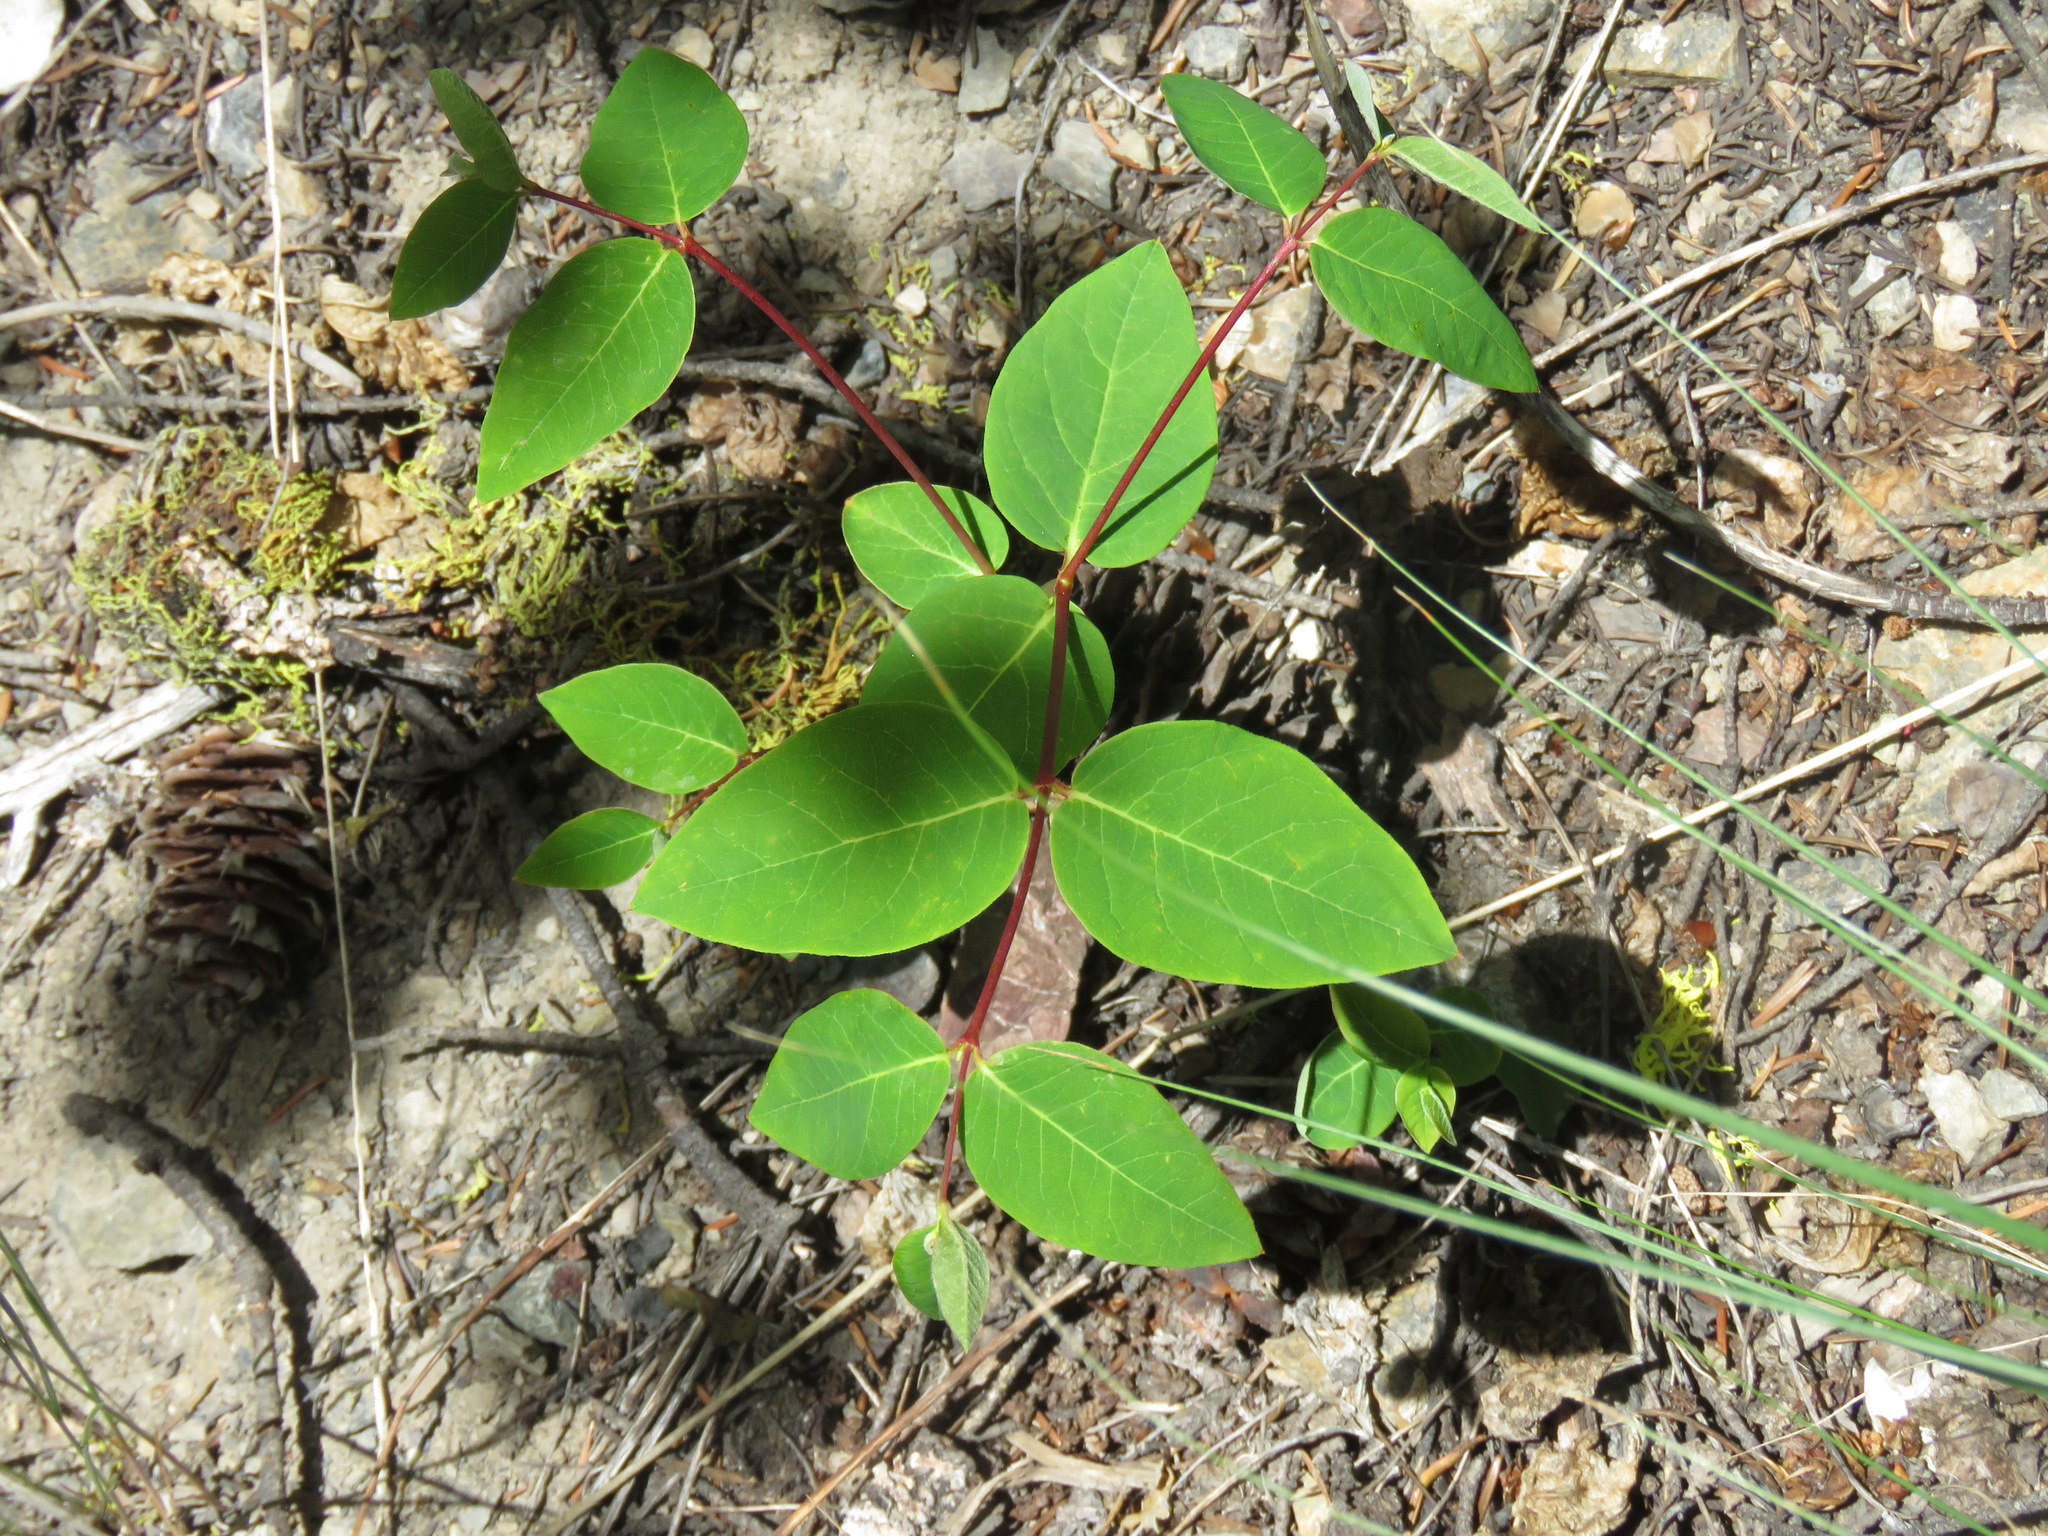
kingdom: Plantae
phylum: Tracheophyta
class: Magnoliopsida
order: Gentianales
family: Apocynaceae
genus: Apocynum
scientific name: Apocynum androsaemifolium
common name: Spreading dogbane
